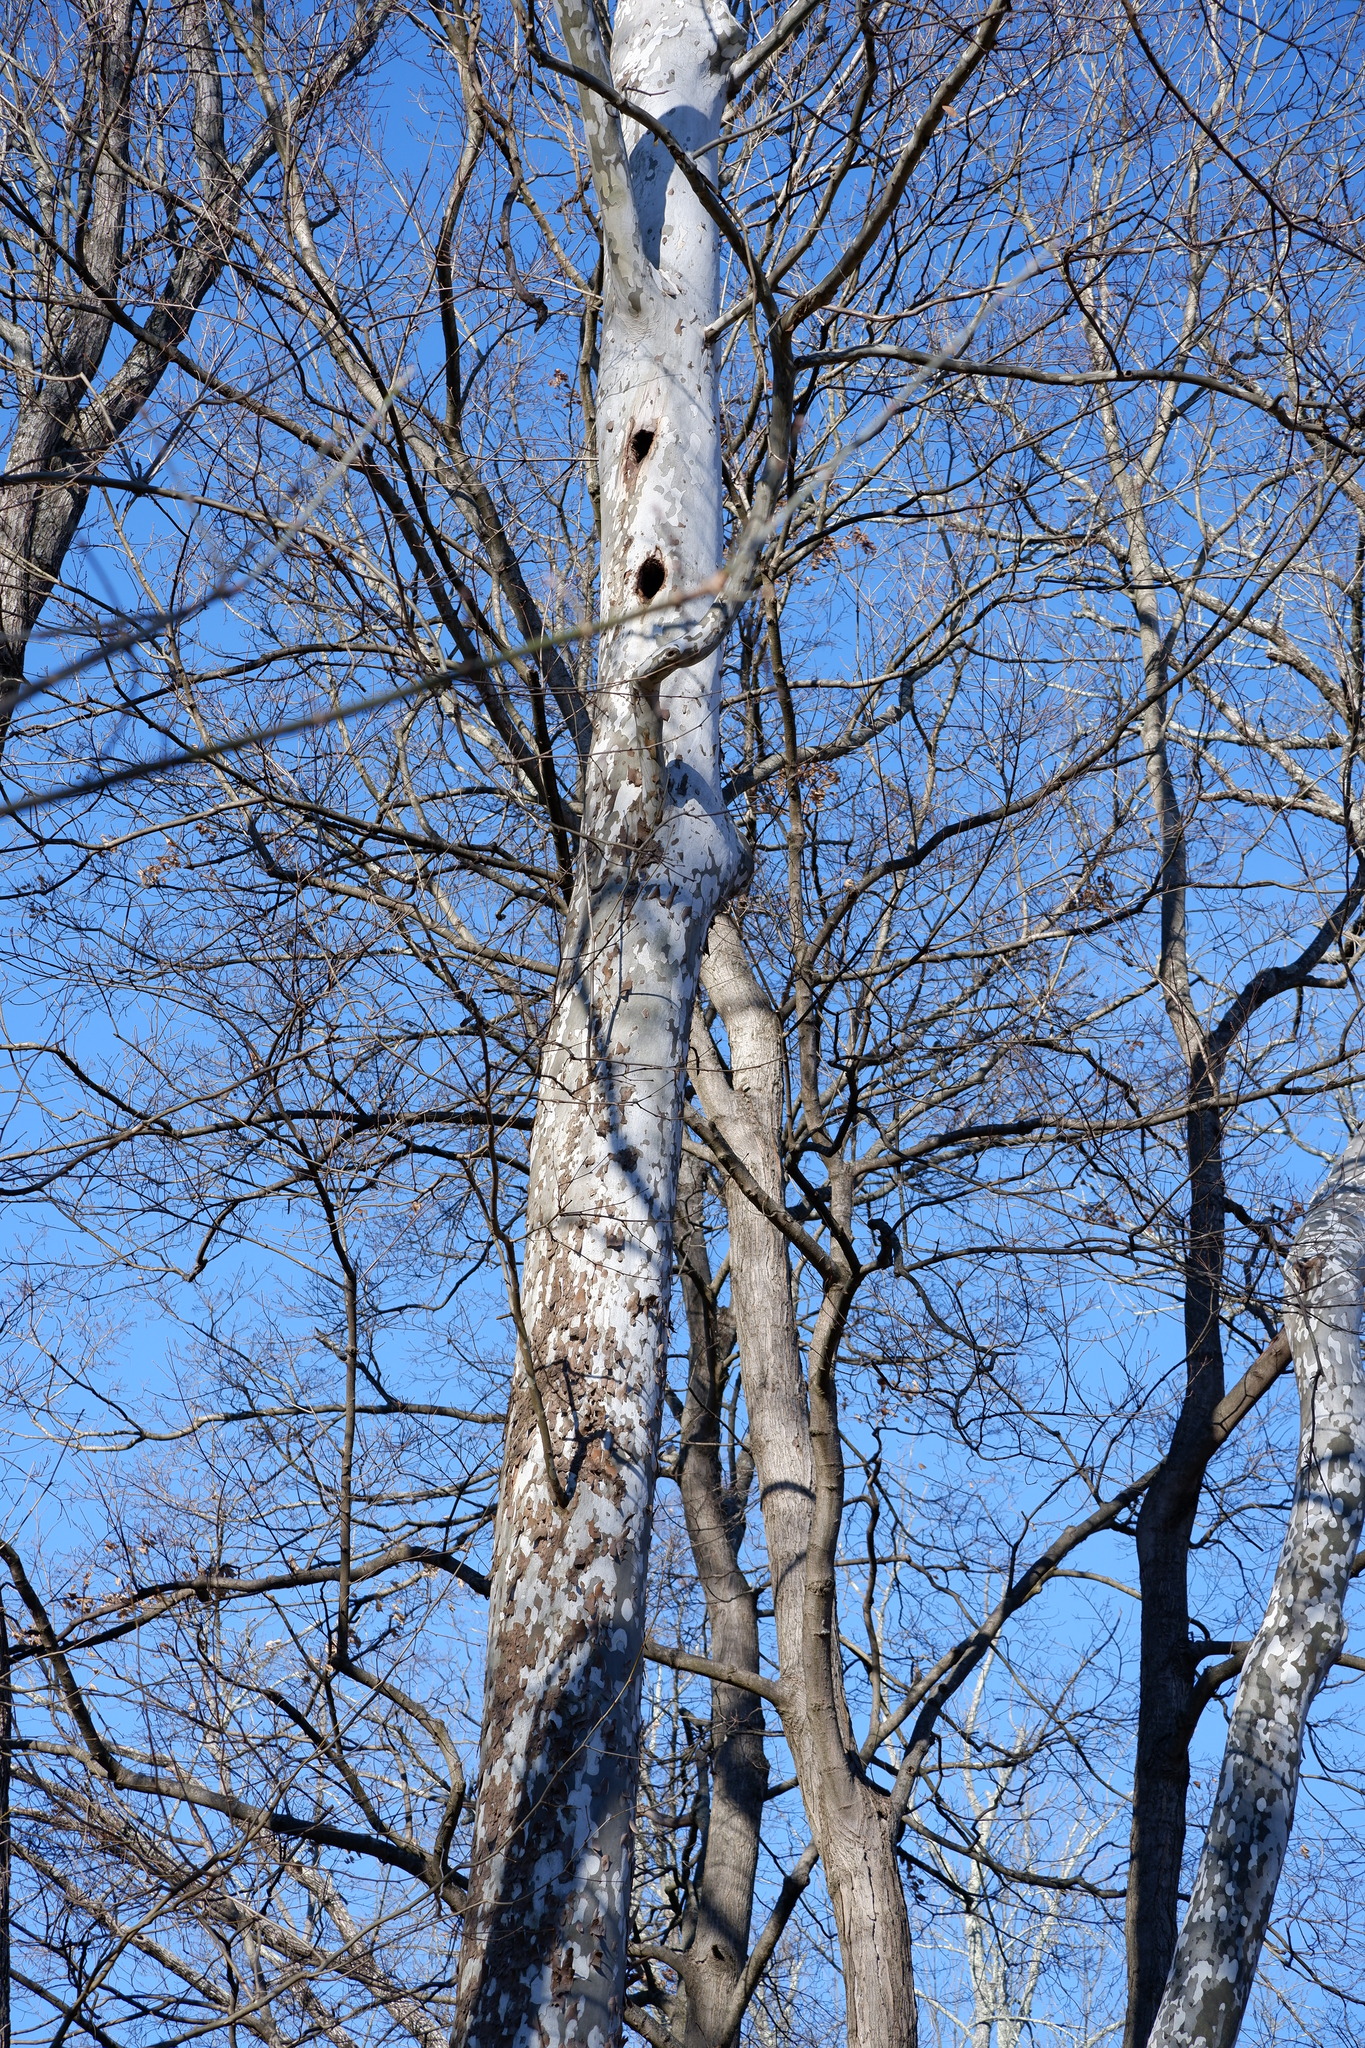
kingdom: Plantae
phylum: Tracheophyta
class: Magnoliopsida
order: Proteales
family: Platanaceae
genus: Platanus
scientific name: Platanus occidentalis
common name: American sycamore
